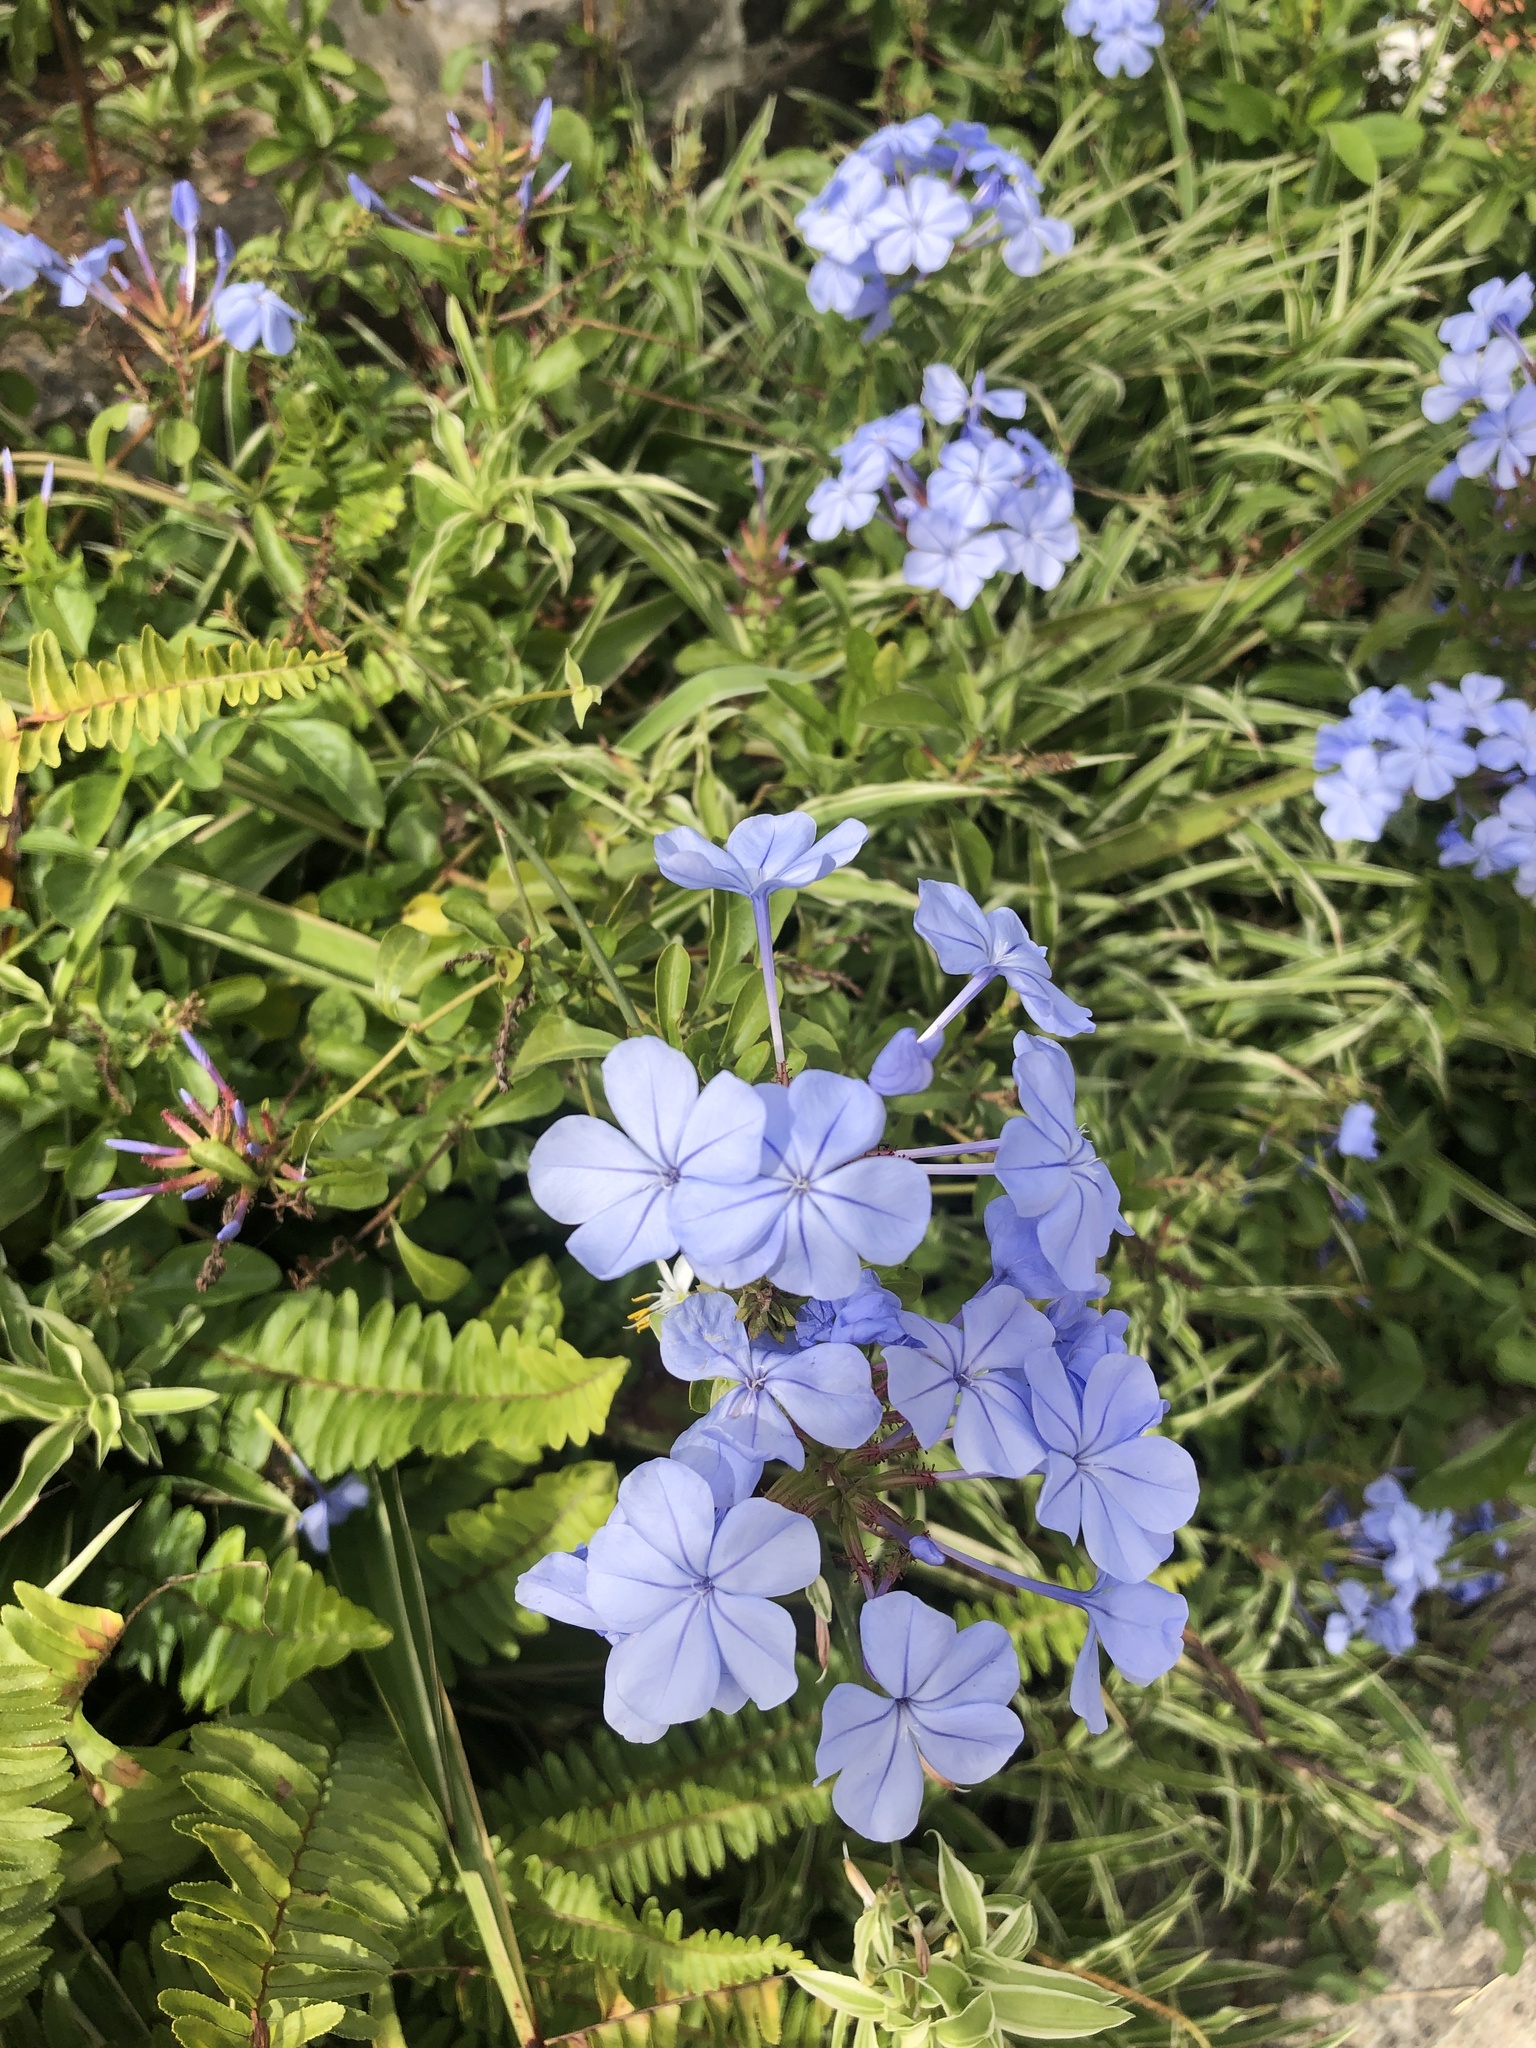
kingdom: Plantae
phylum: Tracheophyta
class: Magnoliopsida
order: Caryophyllales
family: Plumbaginaceae
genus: Plumbago
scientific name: Plumbago auriculata
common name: Cape leadwort
